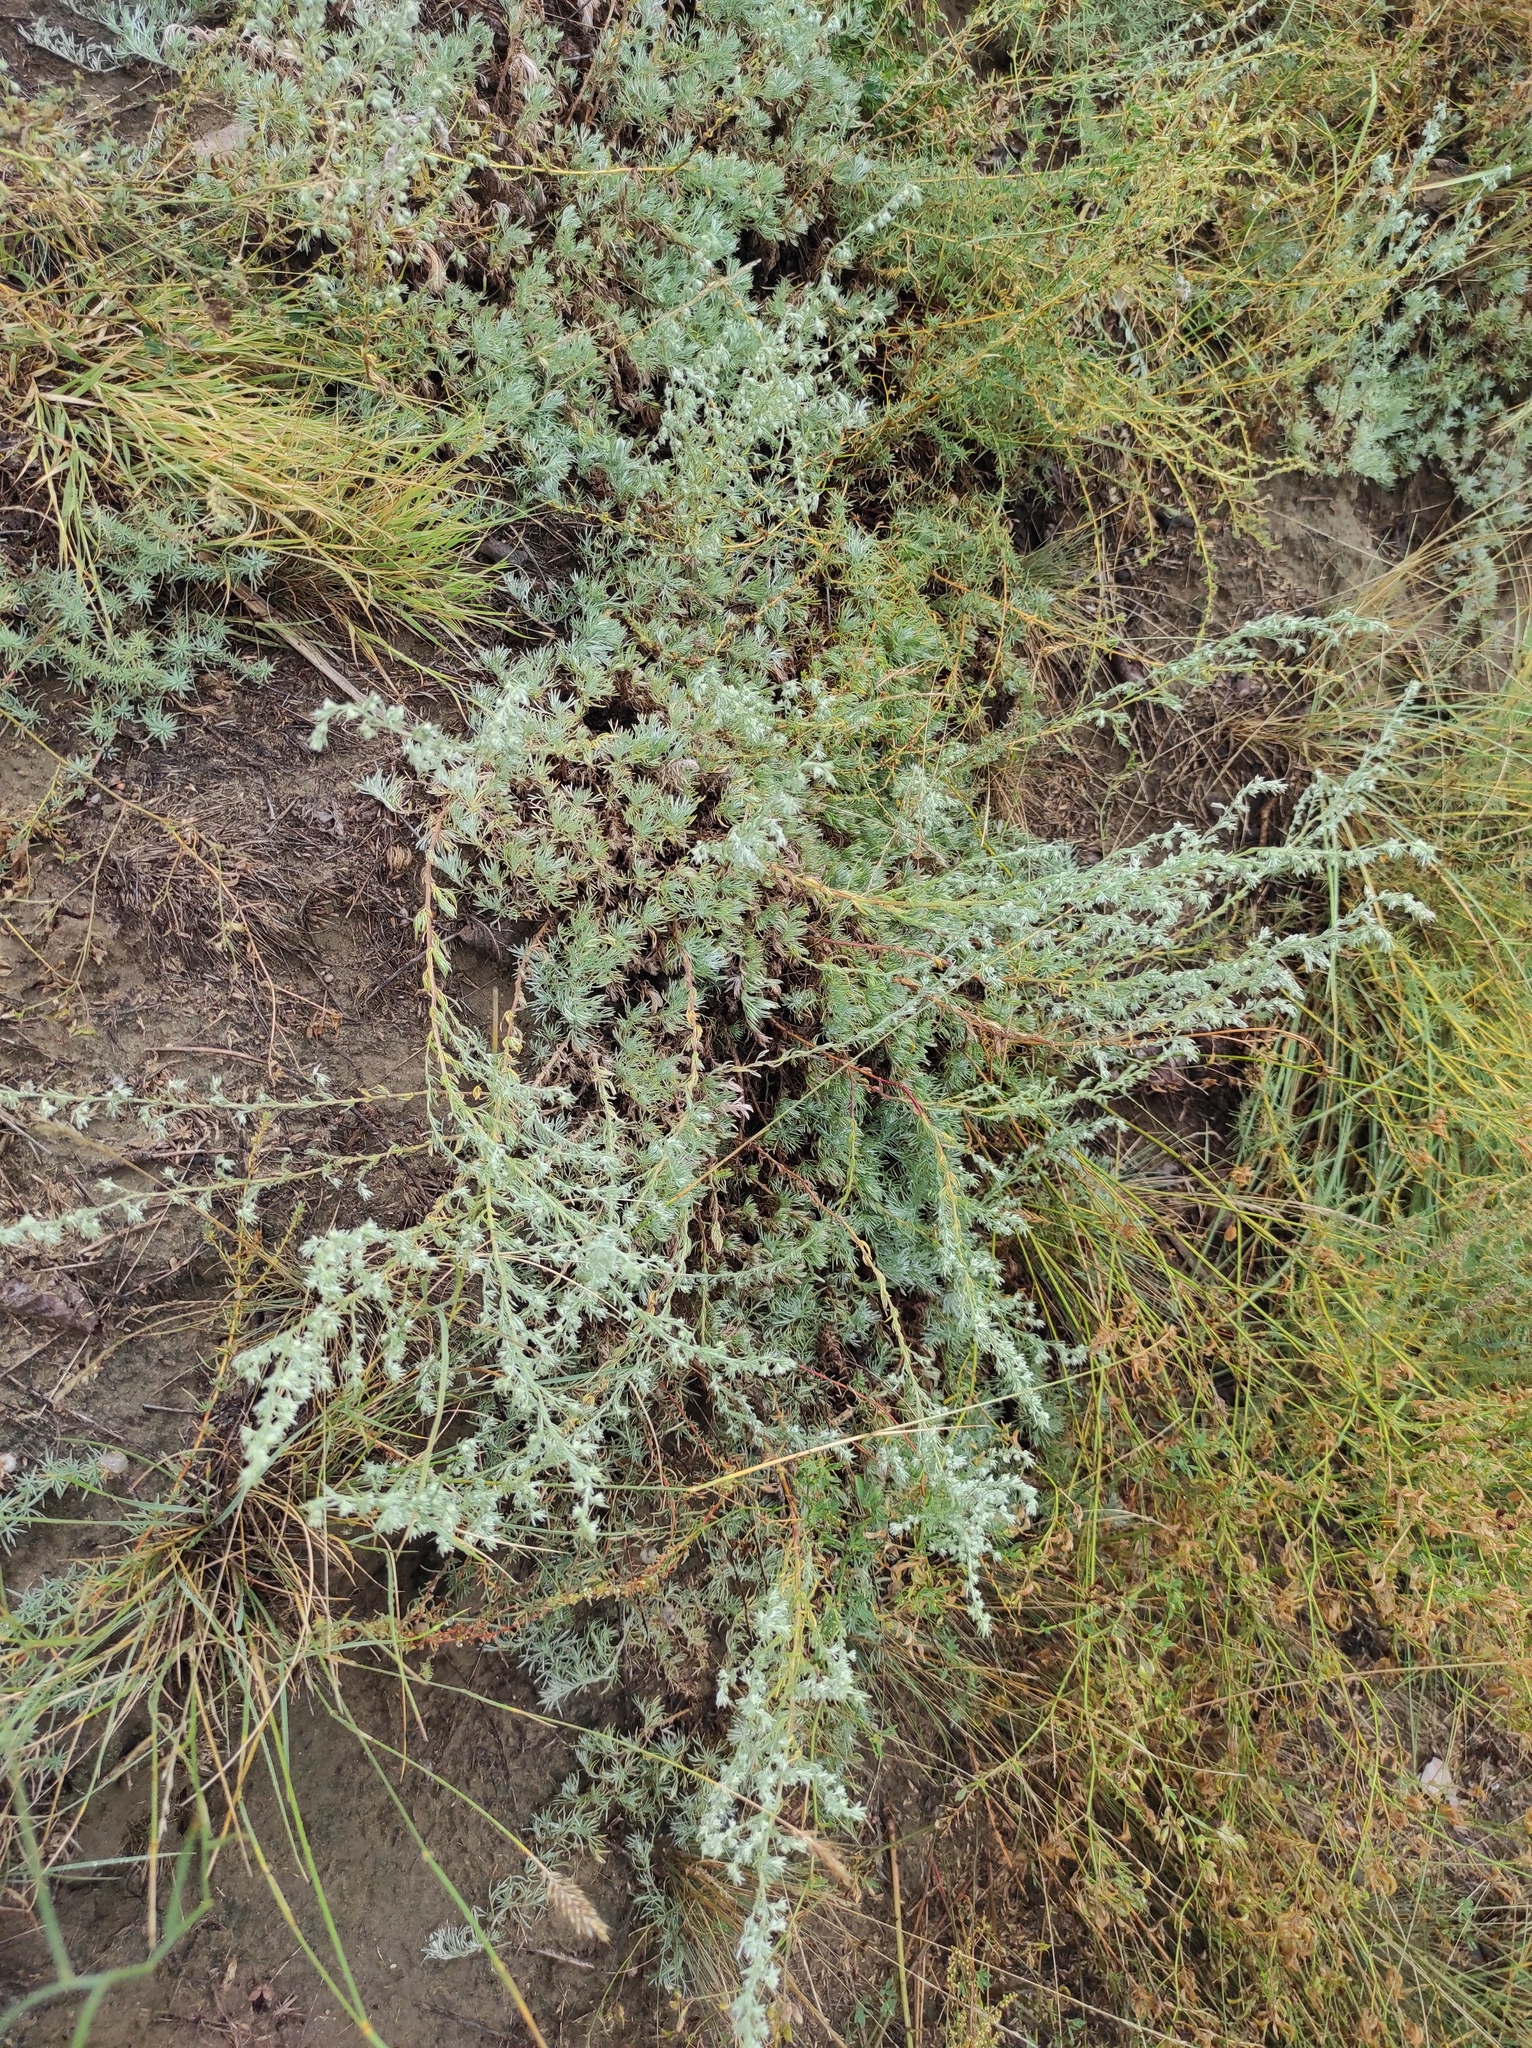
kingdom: Plantae
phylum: Tracheophyta
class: Magnoliopsida
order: Caryophyllales
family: Amaranthaceae
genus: Bassia
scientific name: Bassia prostrata
